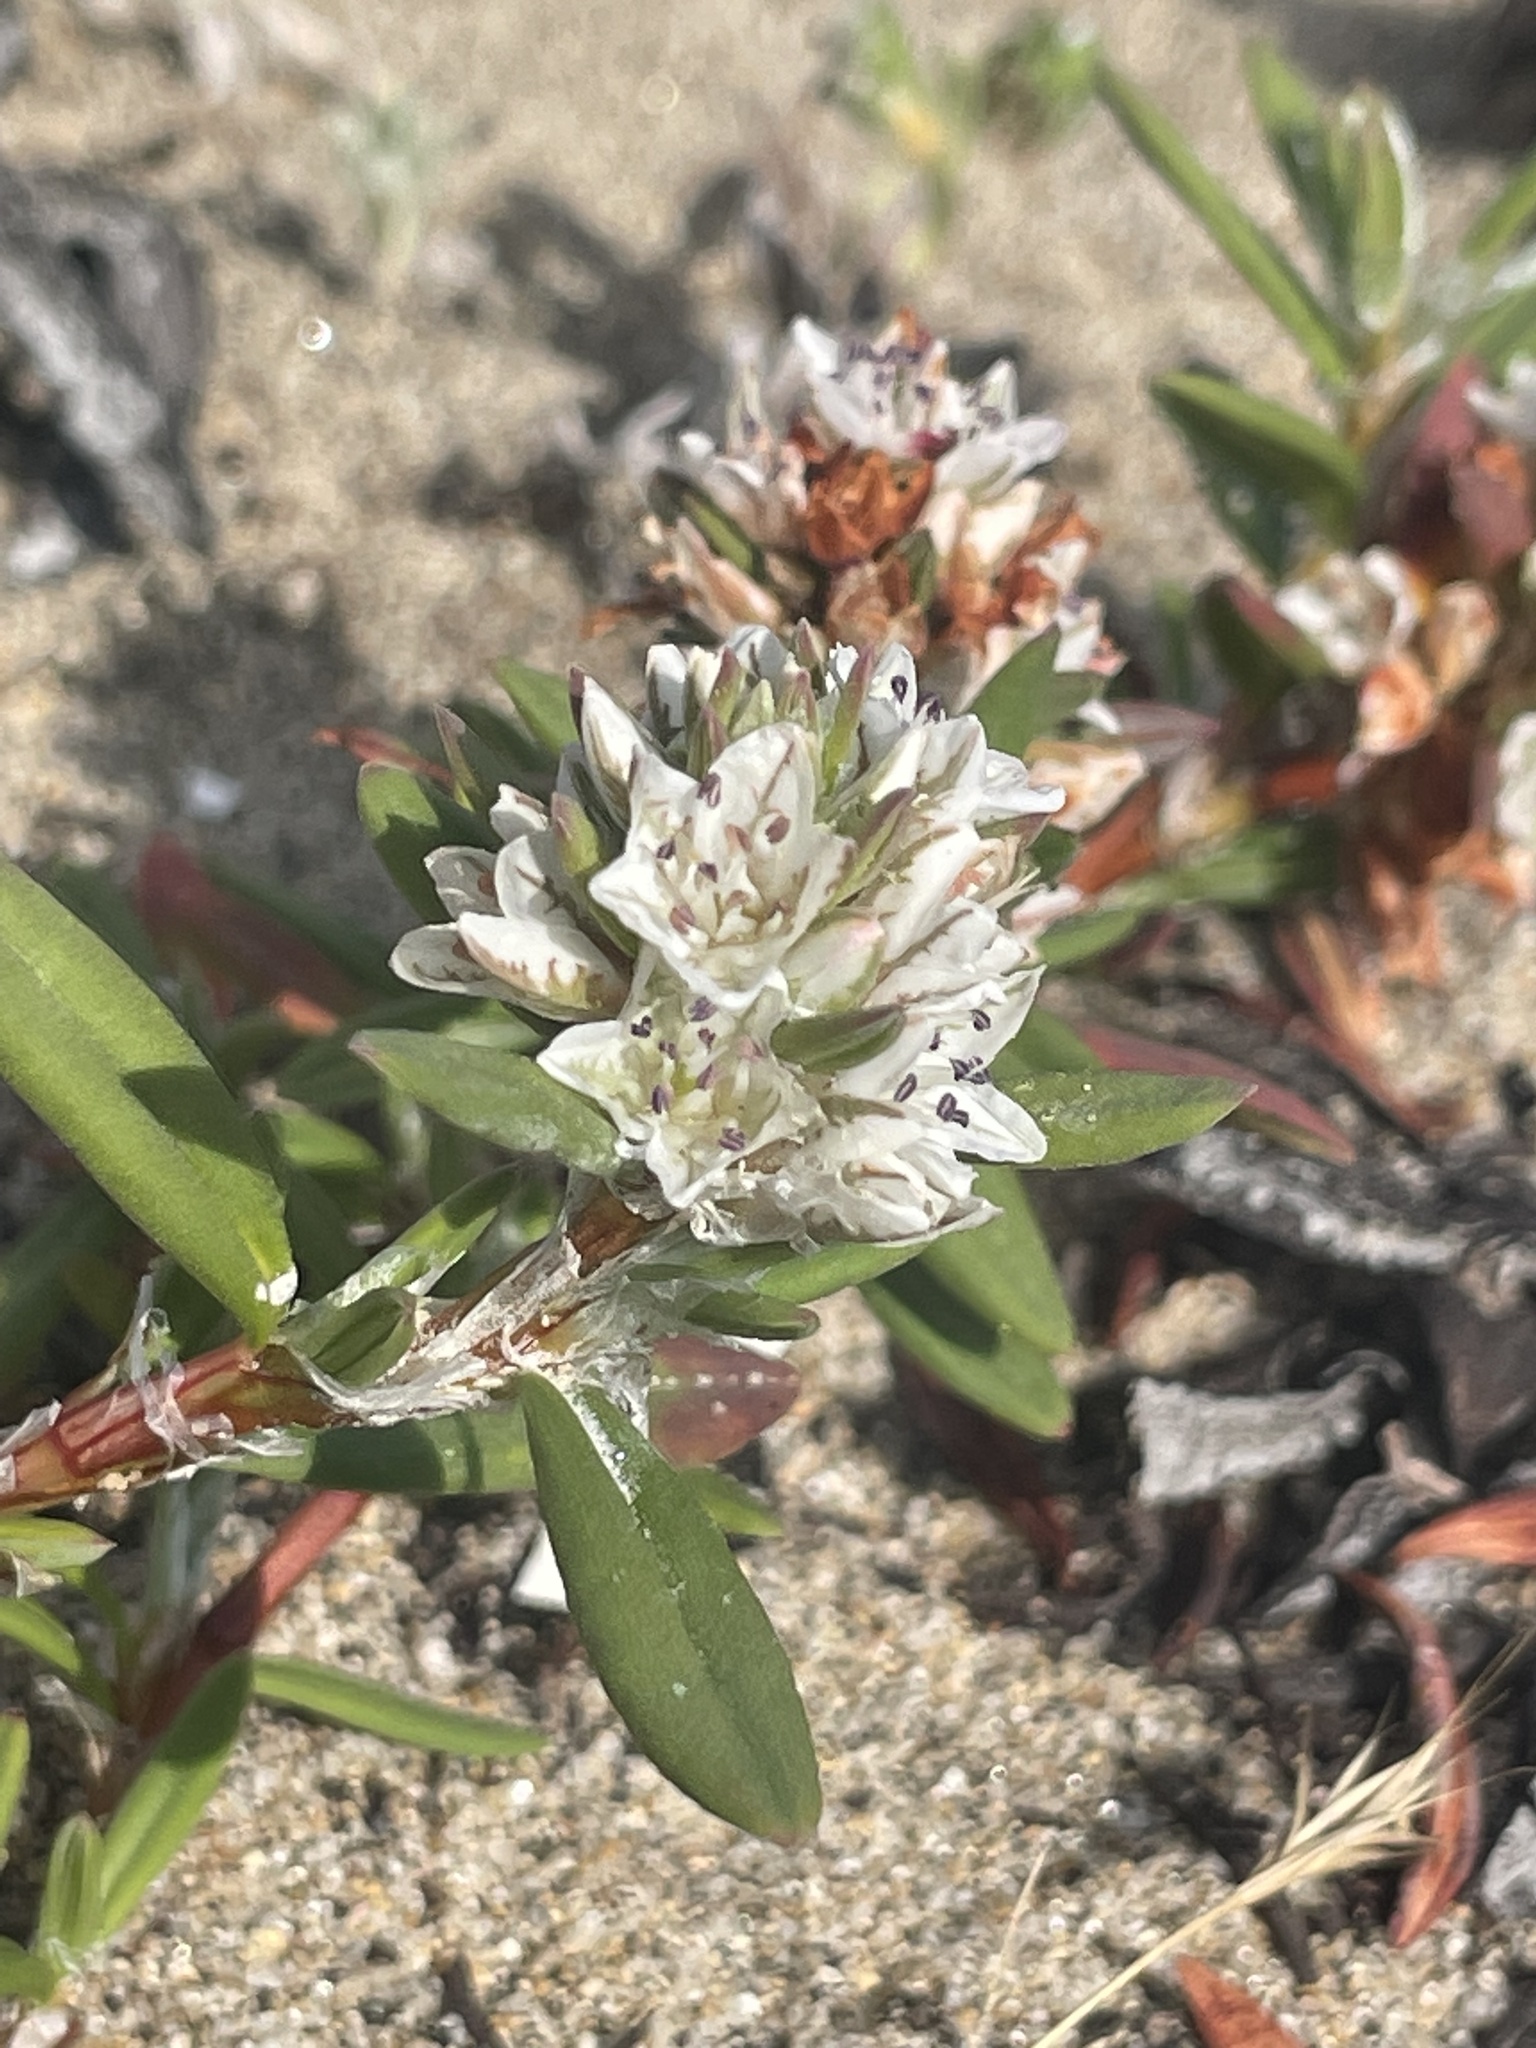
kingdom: Plantae
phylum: Tracheophyta
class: Magnoliopsida
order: Caryophyllales
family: Polygonaceae
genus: Polygonum
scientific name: Polygonum paronychia
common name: Dune knotweed
